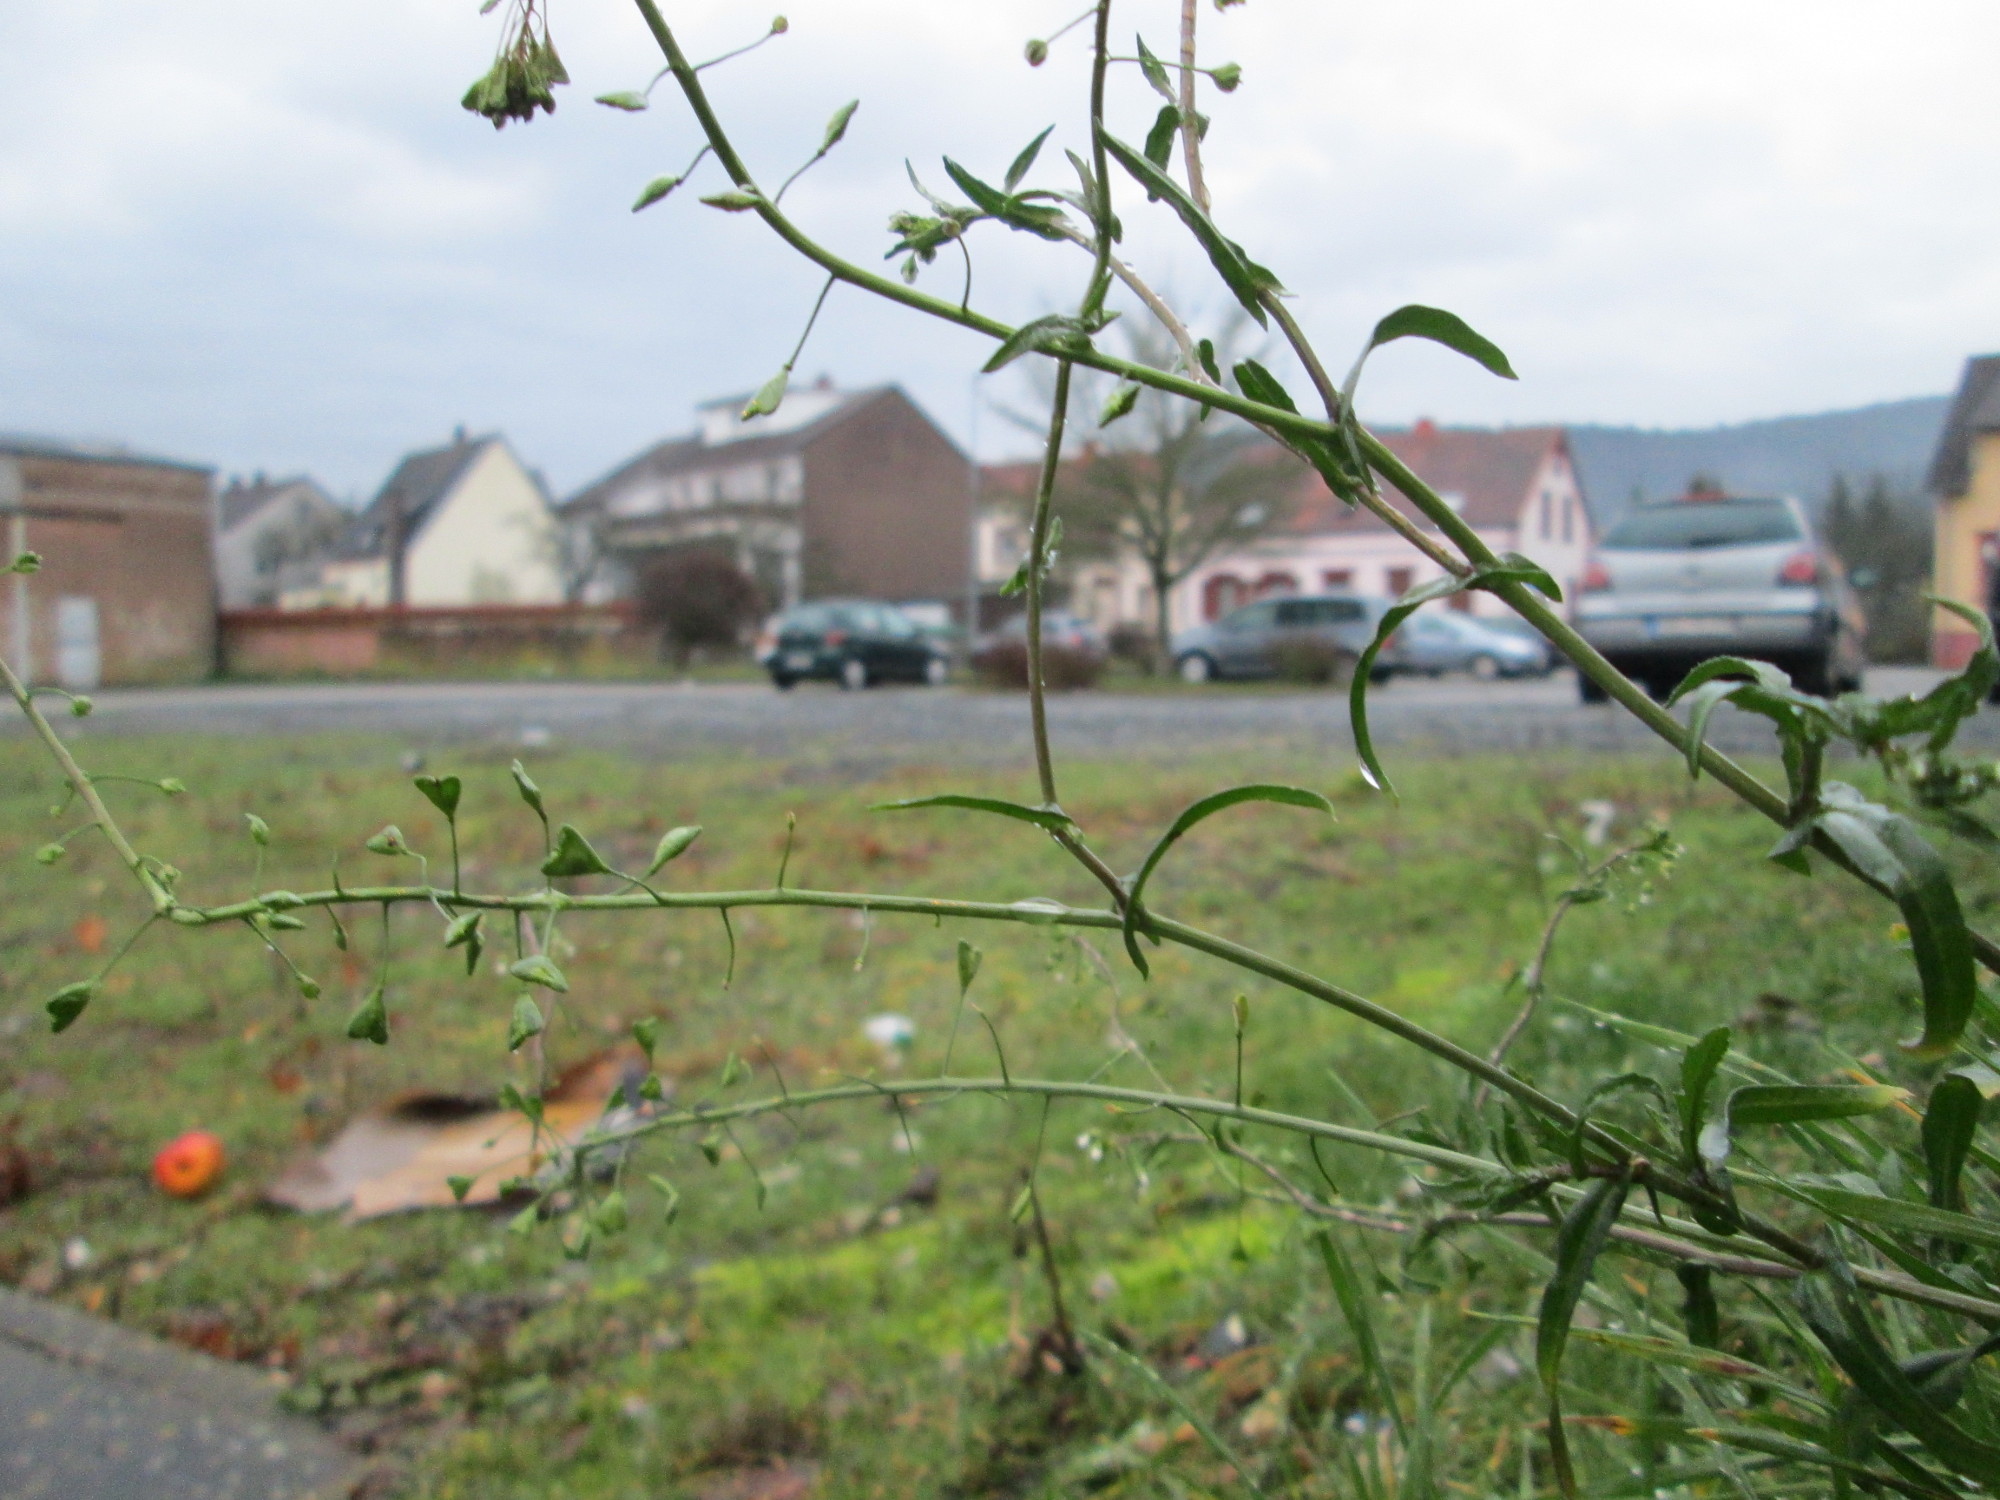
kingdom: Plantae
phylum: Tracheophyta
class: Magnoliopsida
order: Brassicales
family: Brassicaceae
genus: Capsella
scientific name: Capsella bursa-pastoris
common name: Shepherd's purse
